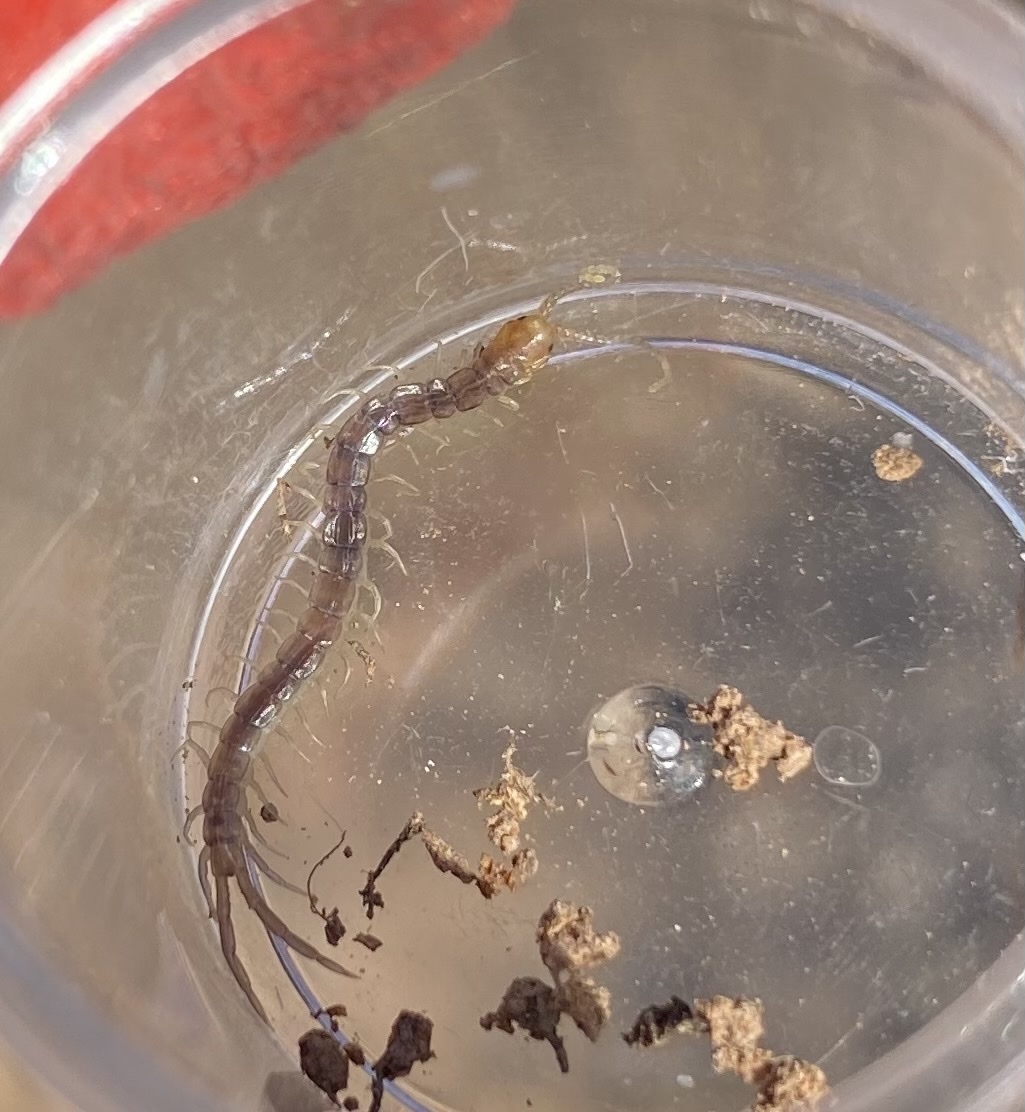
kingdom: Animalia
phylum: Arthropoda
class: Chilopoda
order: Scolopendromorpha
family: Scolopendridae
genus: Scolopendra
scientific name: Scolopendra polymorpha
